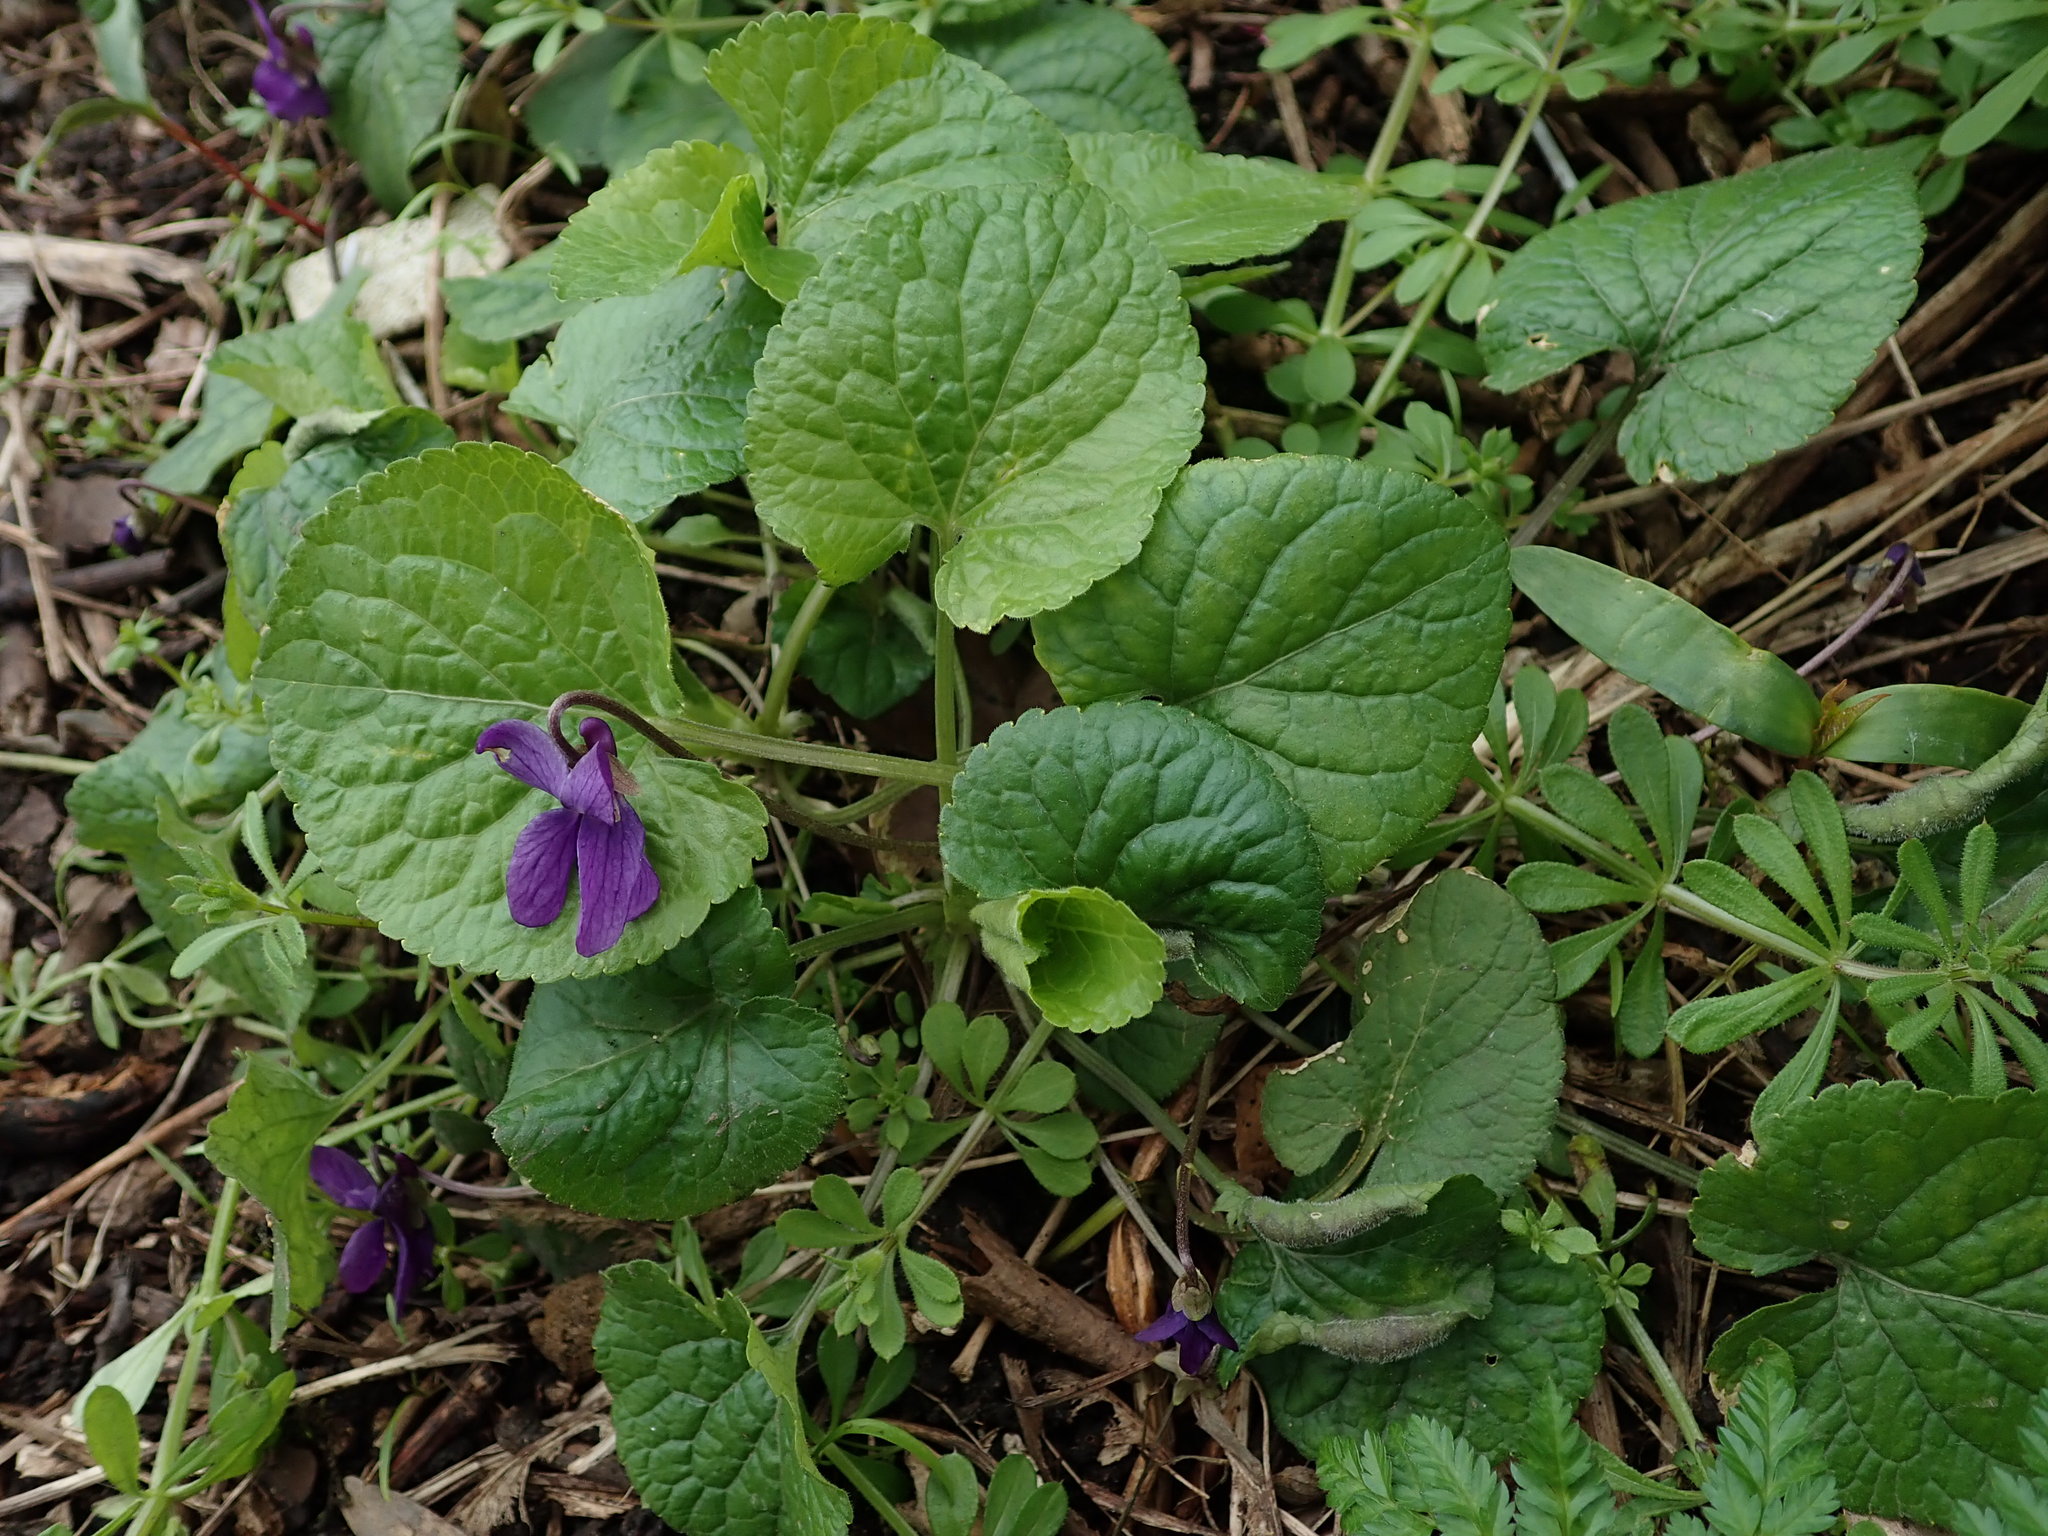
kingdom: Plantae
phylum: Tracheophyta
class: Magnoliopsida
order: Malpighiales
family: Violaceae
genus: Viola
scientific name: Viola odorata
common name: Sweet violet
